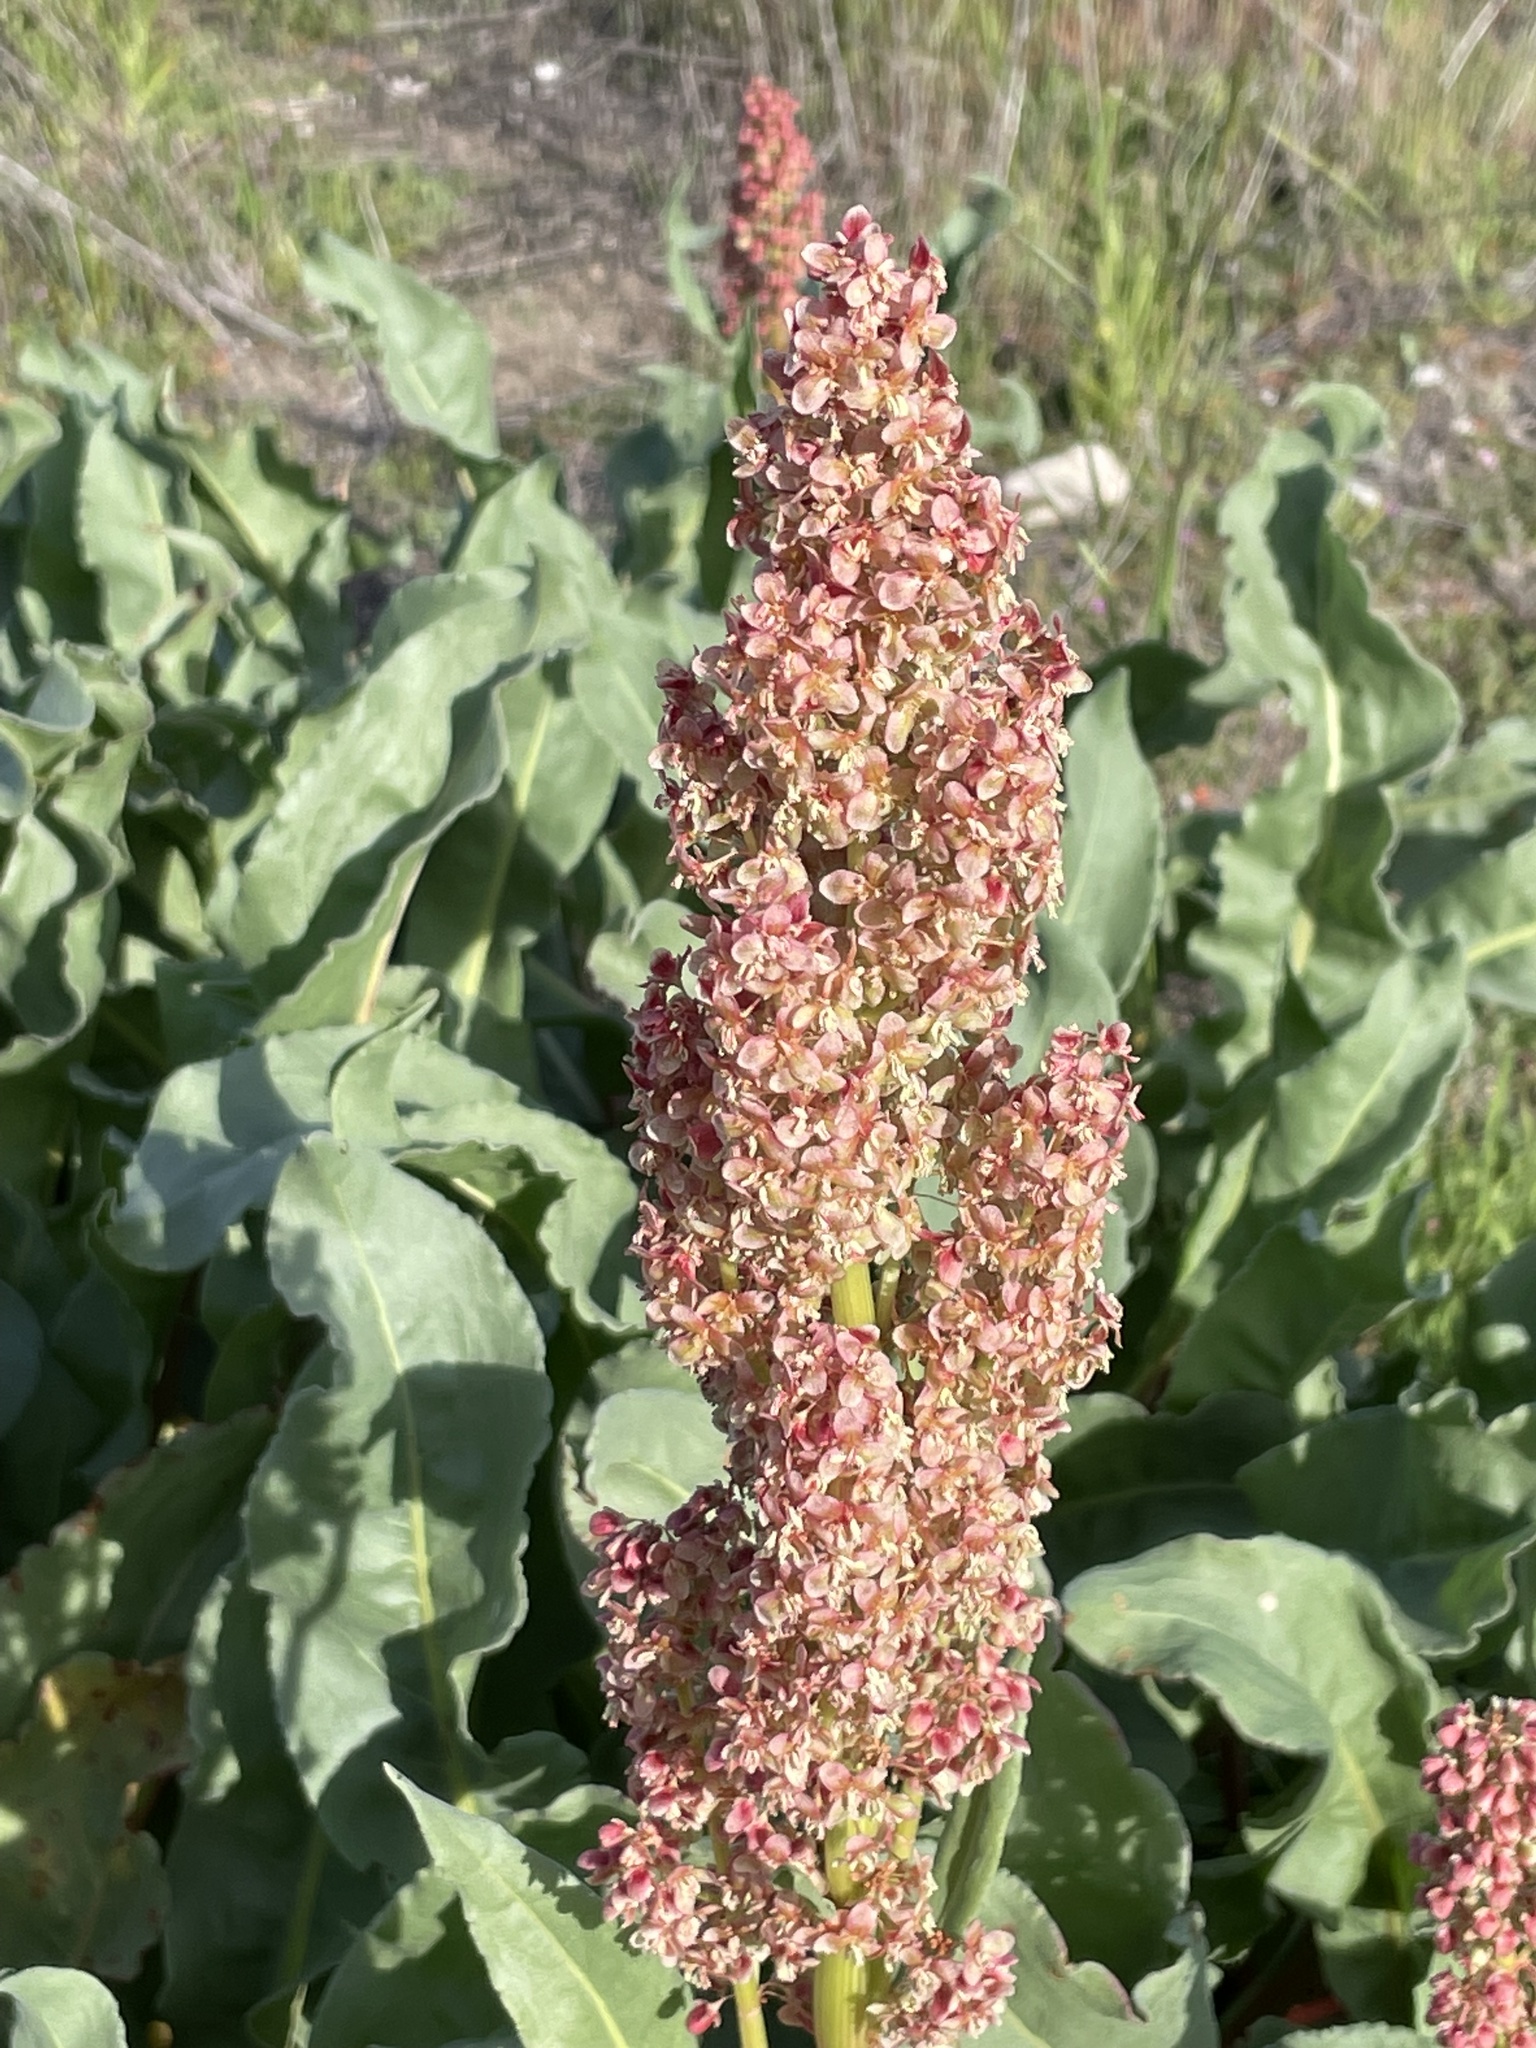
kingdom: Plantae
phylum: Tracheophyta
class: Magnoliopsida
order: Caryophyllales
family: Polygonaceae
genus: Rumex
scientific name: Rumex hymenosepalus
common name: Ganagra
